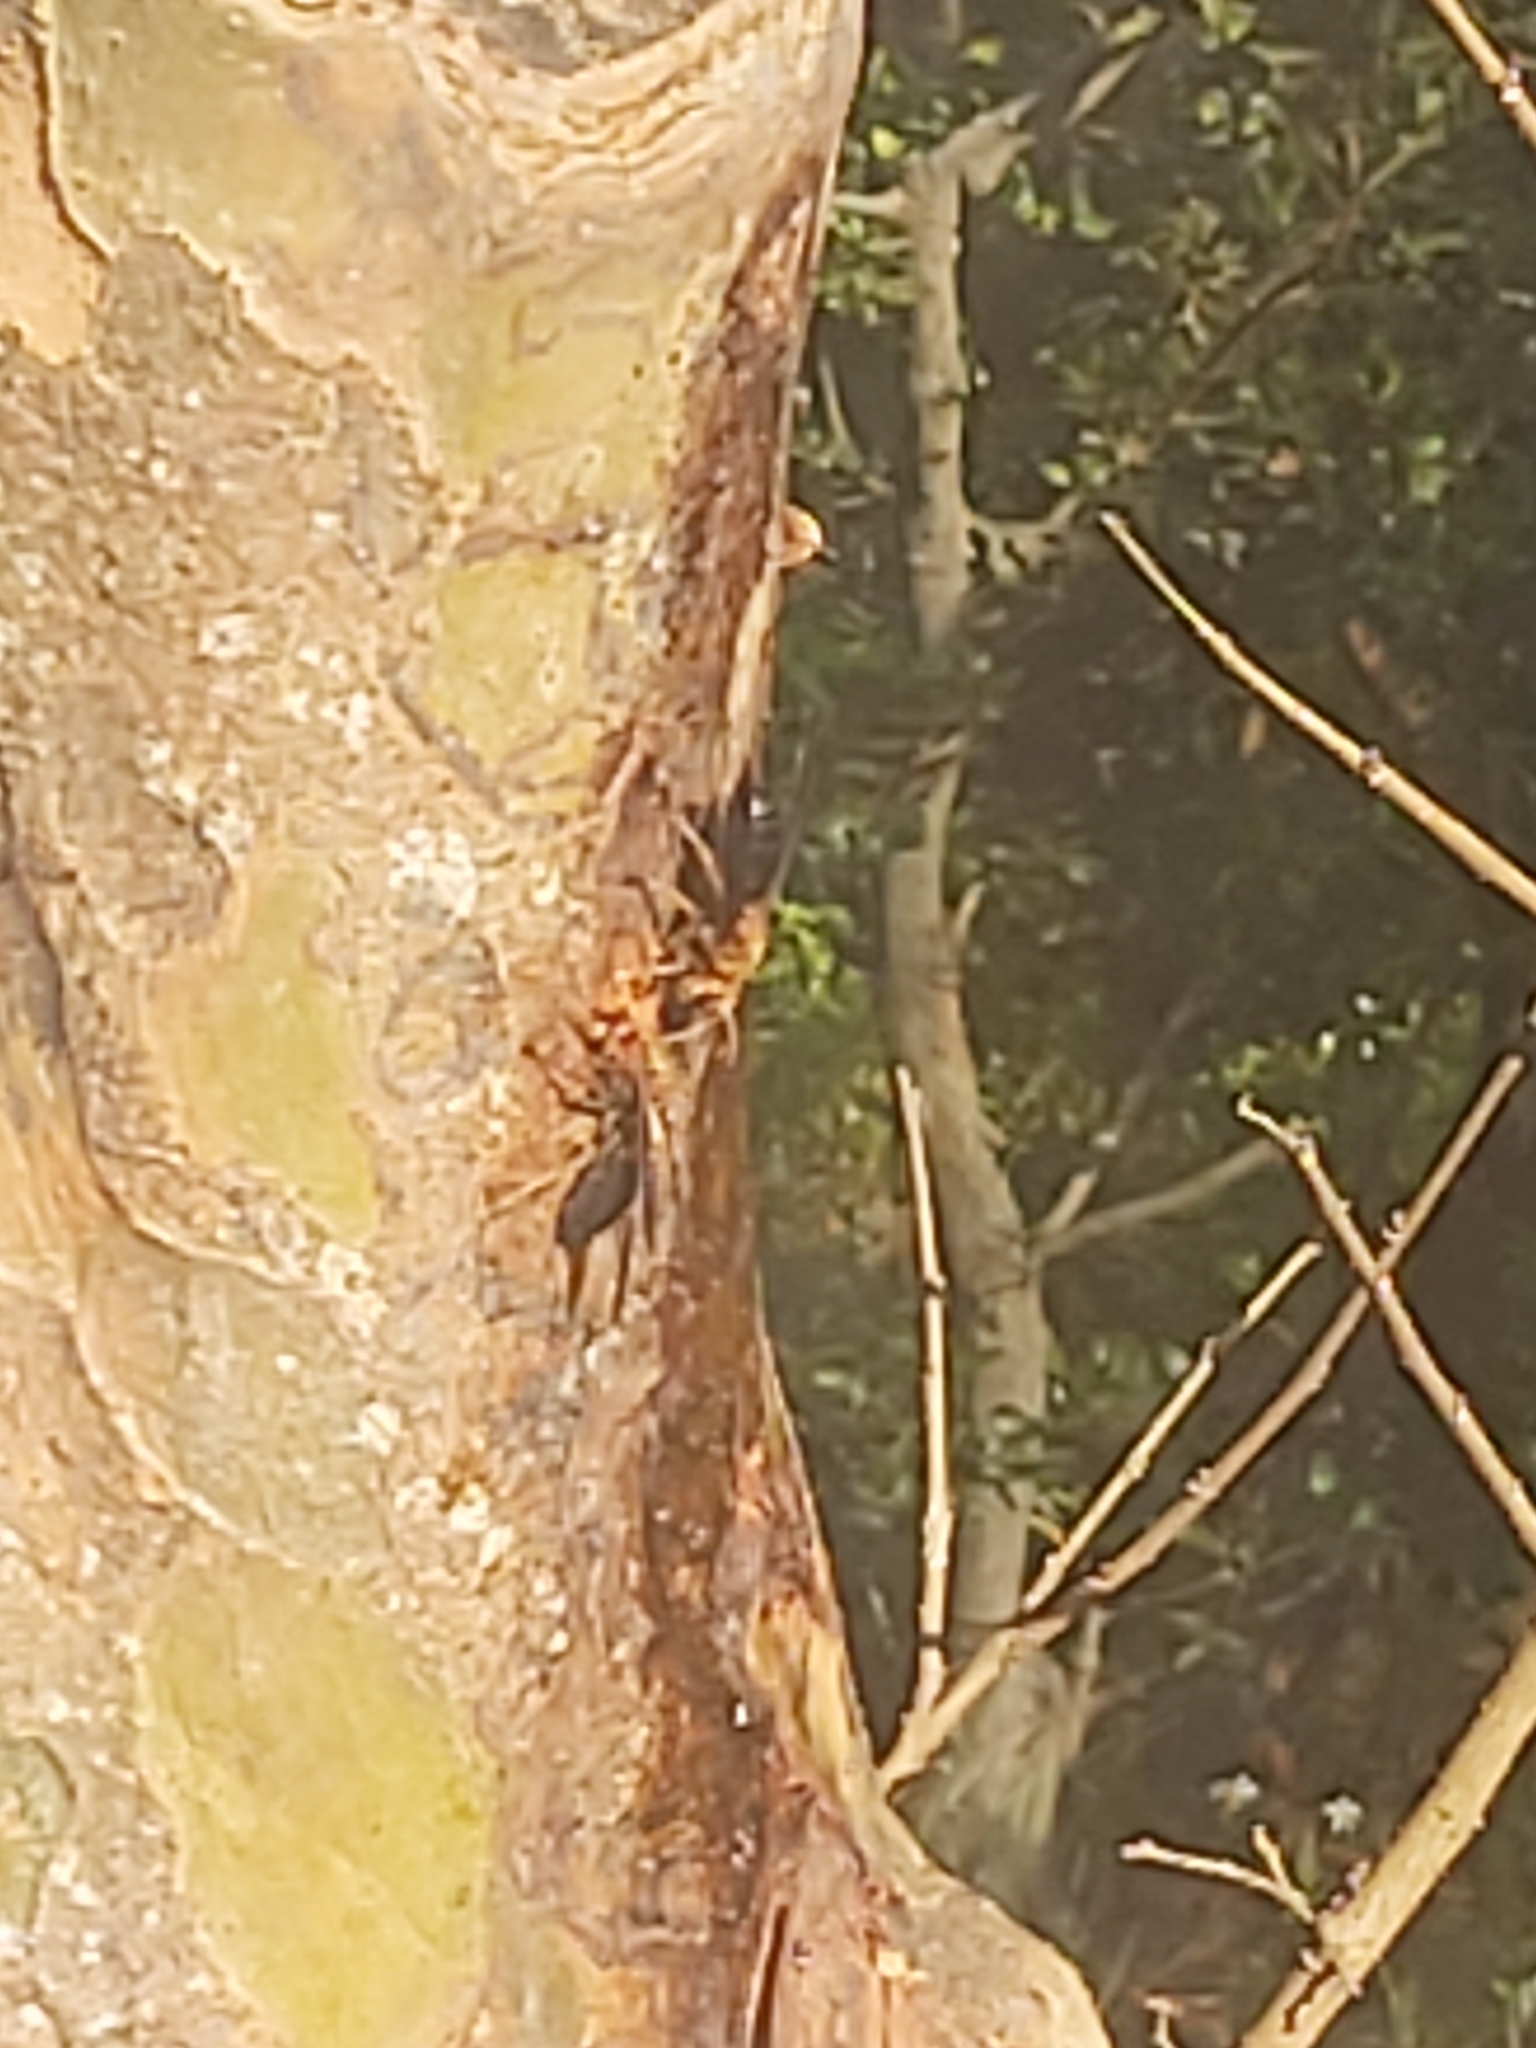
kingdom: Animalia
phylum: Arthropoda
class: Insecta
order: Hymenoptera
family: Vespidae
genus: Vespa
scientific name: Vespa basalis
